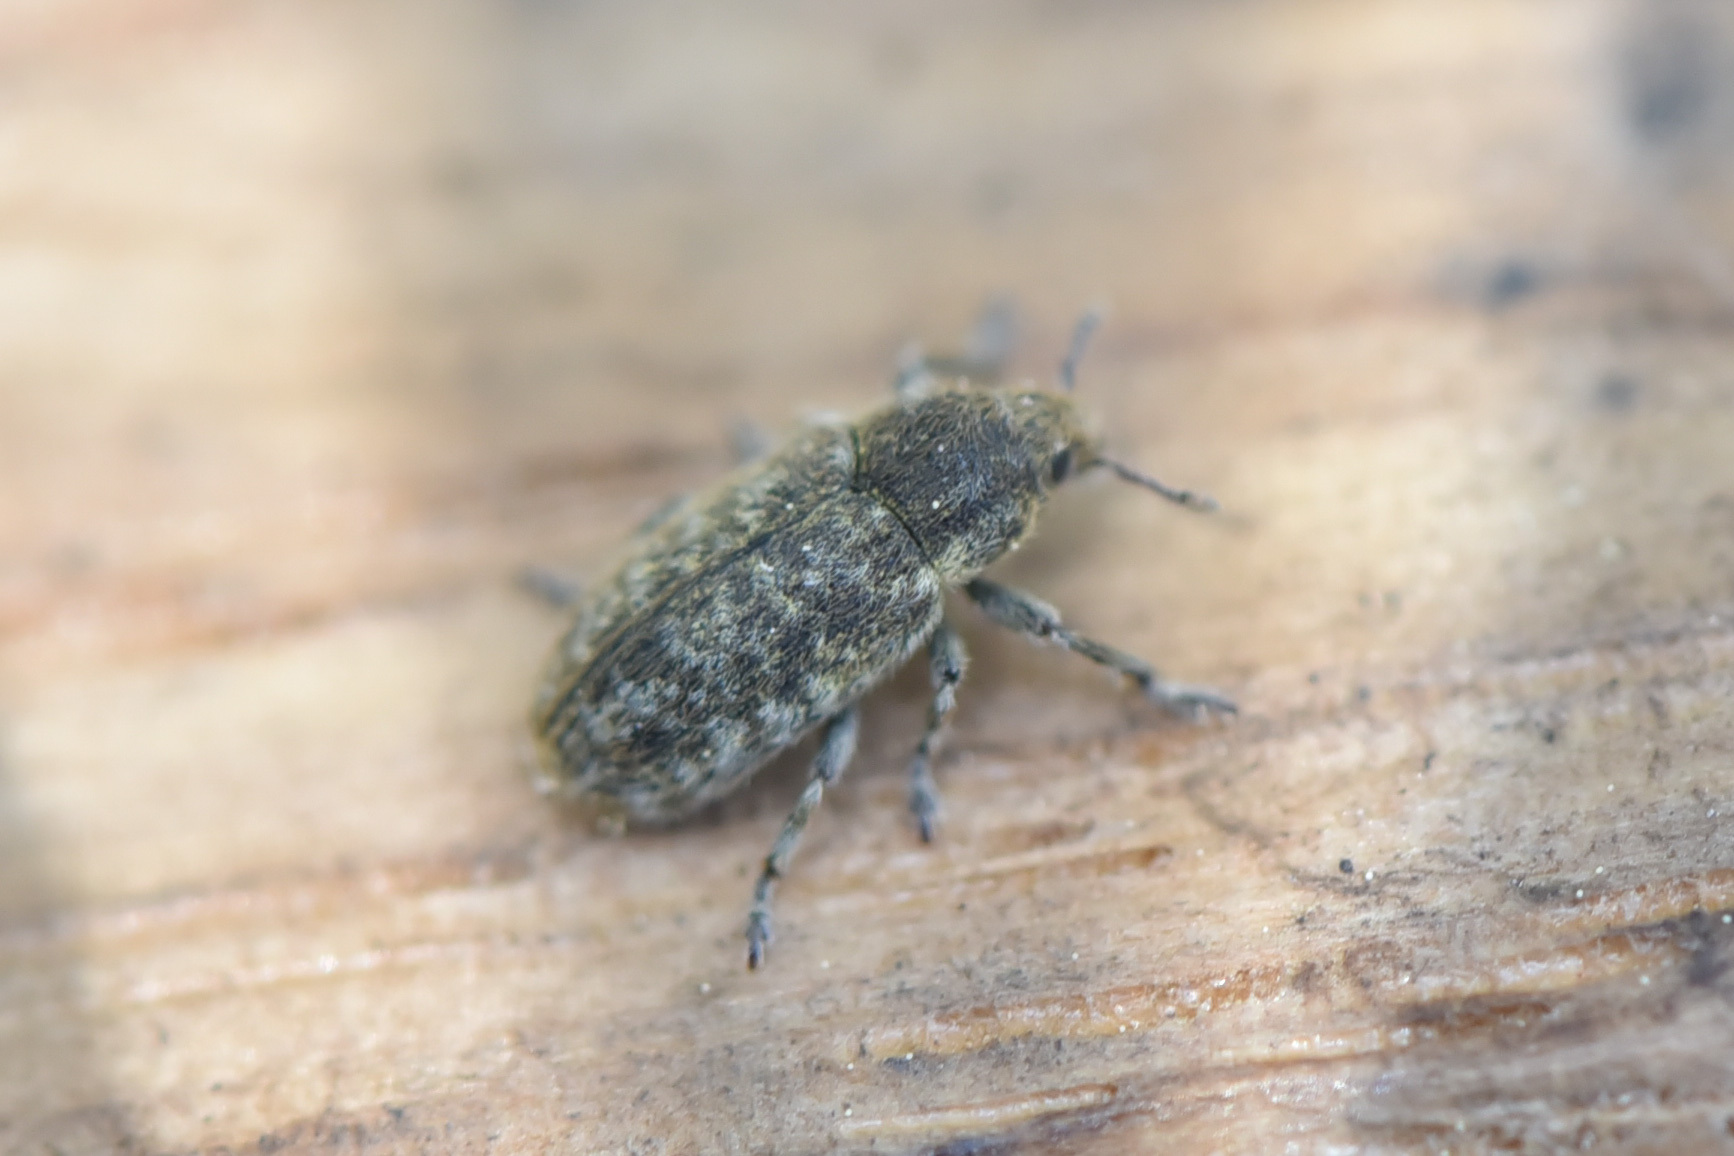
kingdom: Animalia
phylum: Arthropoda
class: Insecta
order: Coleoptera
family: Curculionidae
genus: Bangasternus
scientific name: Bangasternus fausti
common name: Broad-nosed knapweed seedhead weevil
